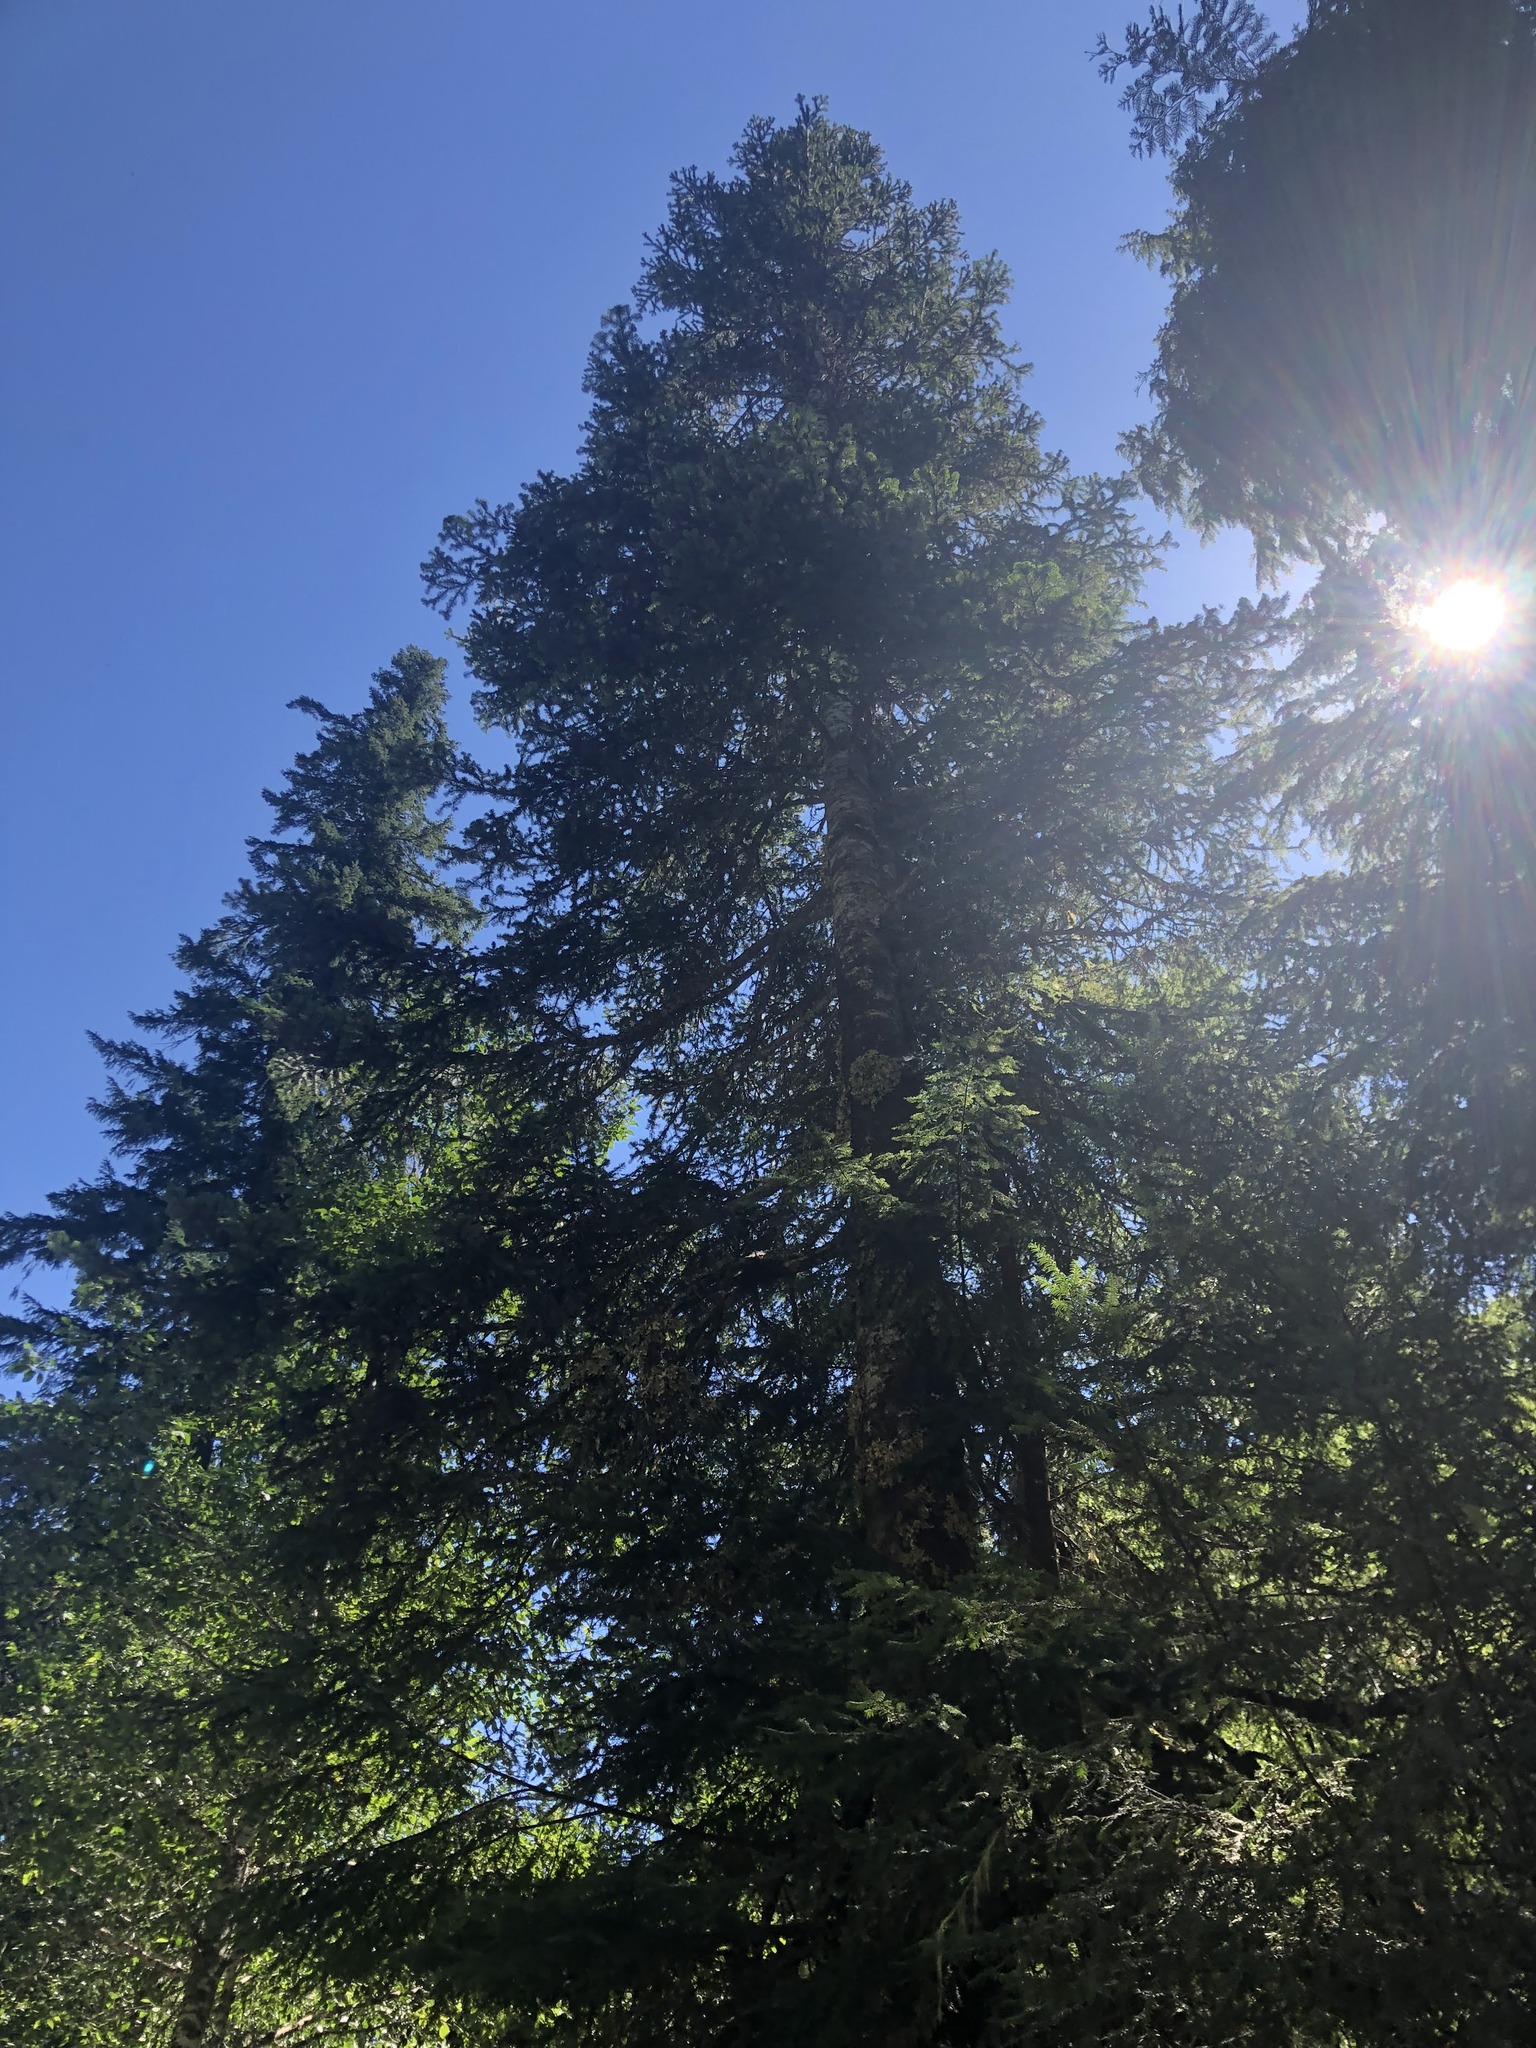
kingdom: Plantae
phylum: Tracheophyta
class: Pinopsida
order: Pinales
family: Pinaceae
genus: Abies
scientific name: Abies amabilis
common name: Pacific silver fir
